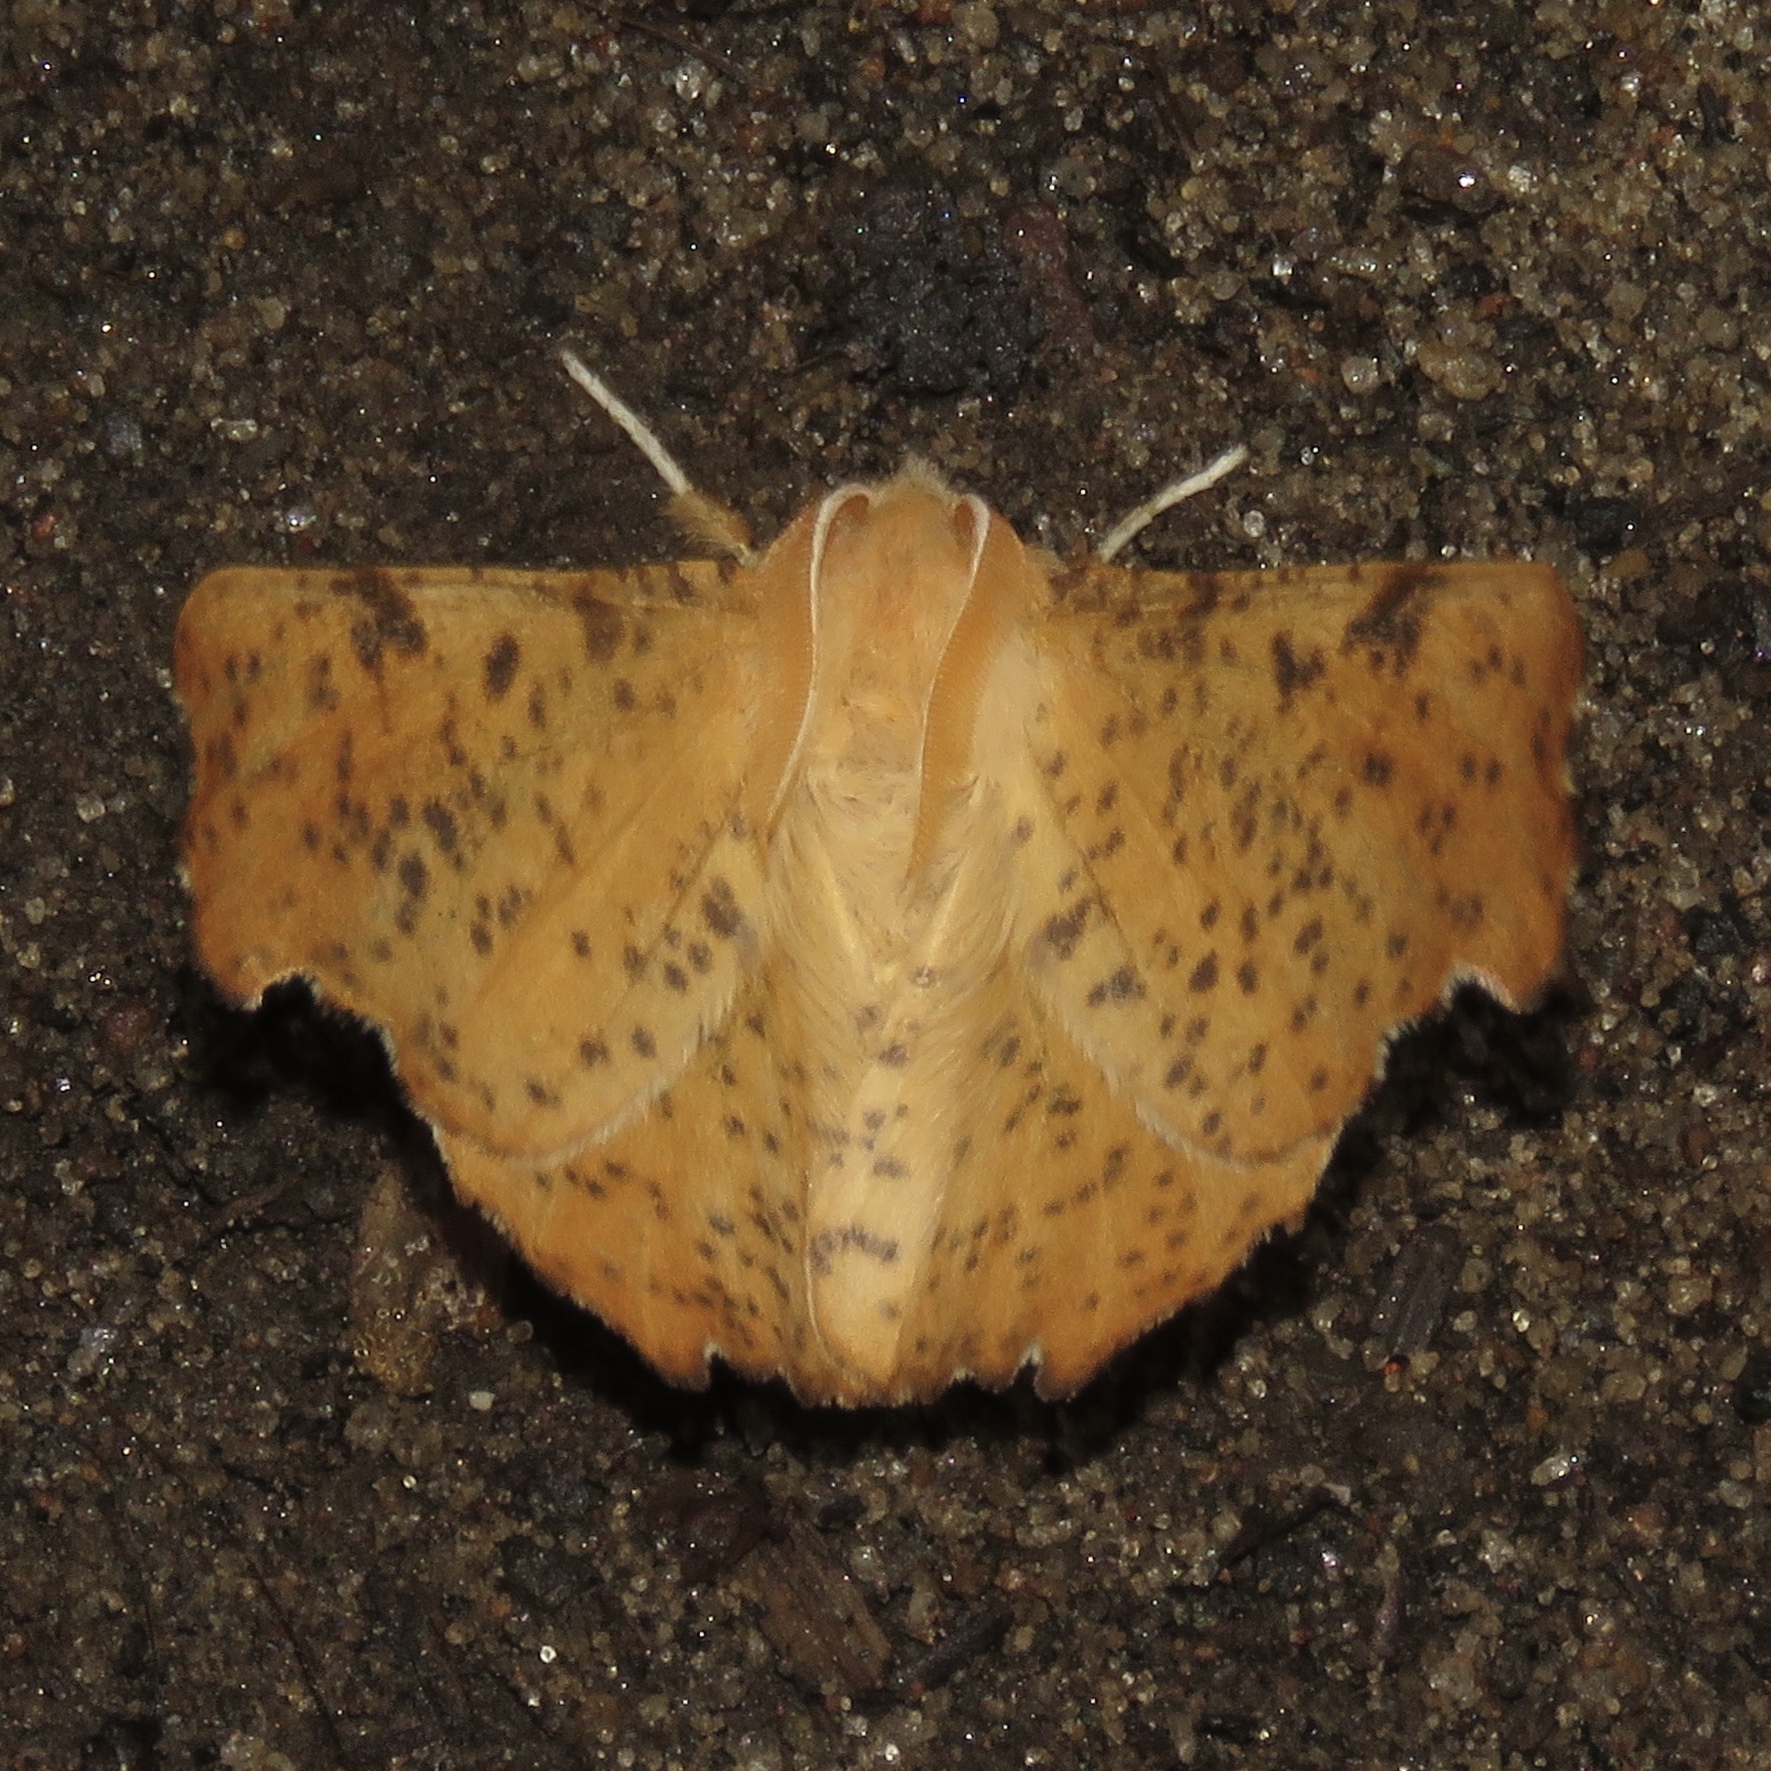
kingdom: Animalia
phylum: Arthropoda
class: Insecta
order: Lepidoptera
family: Geometridae
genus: Ennomos
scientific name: Ennomos magnaria
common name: Maple spanworm
